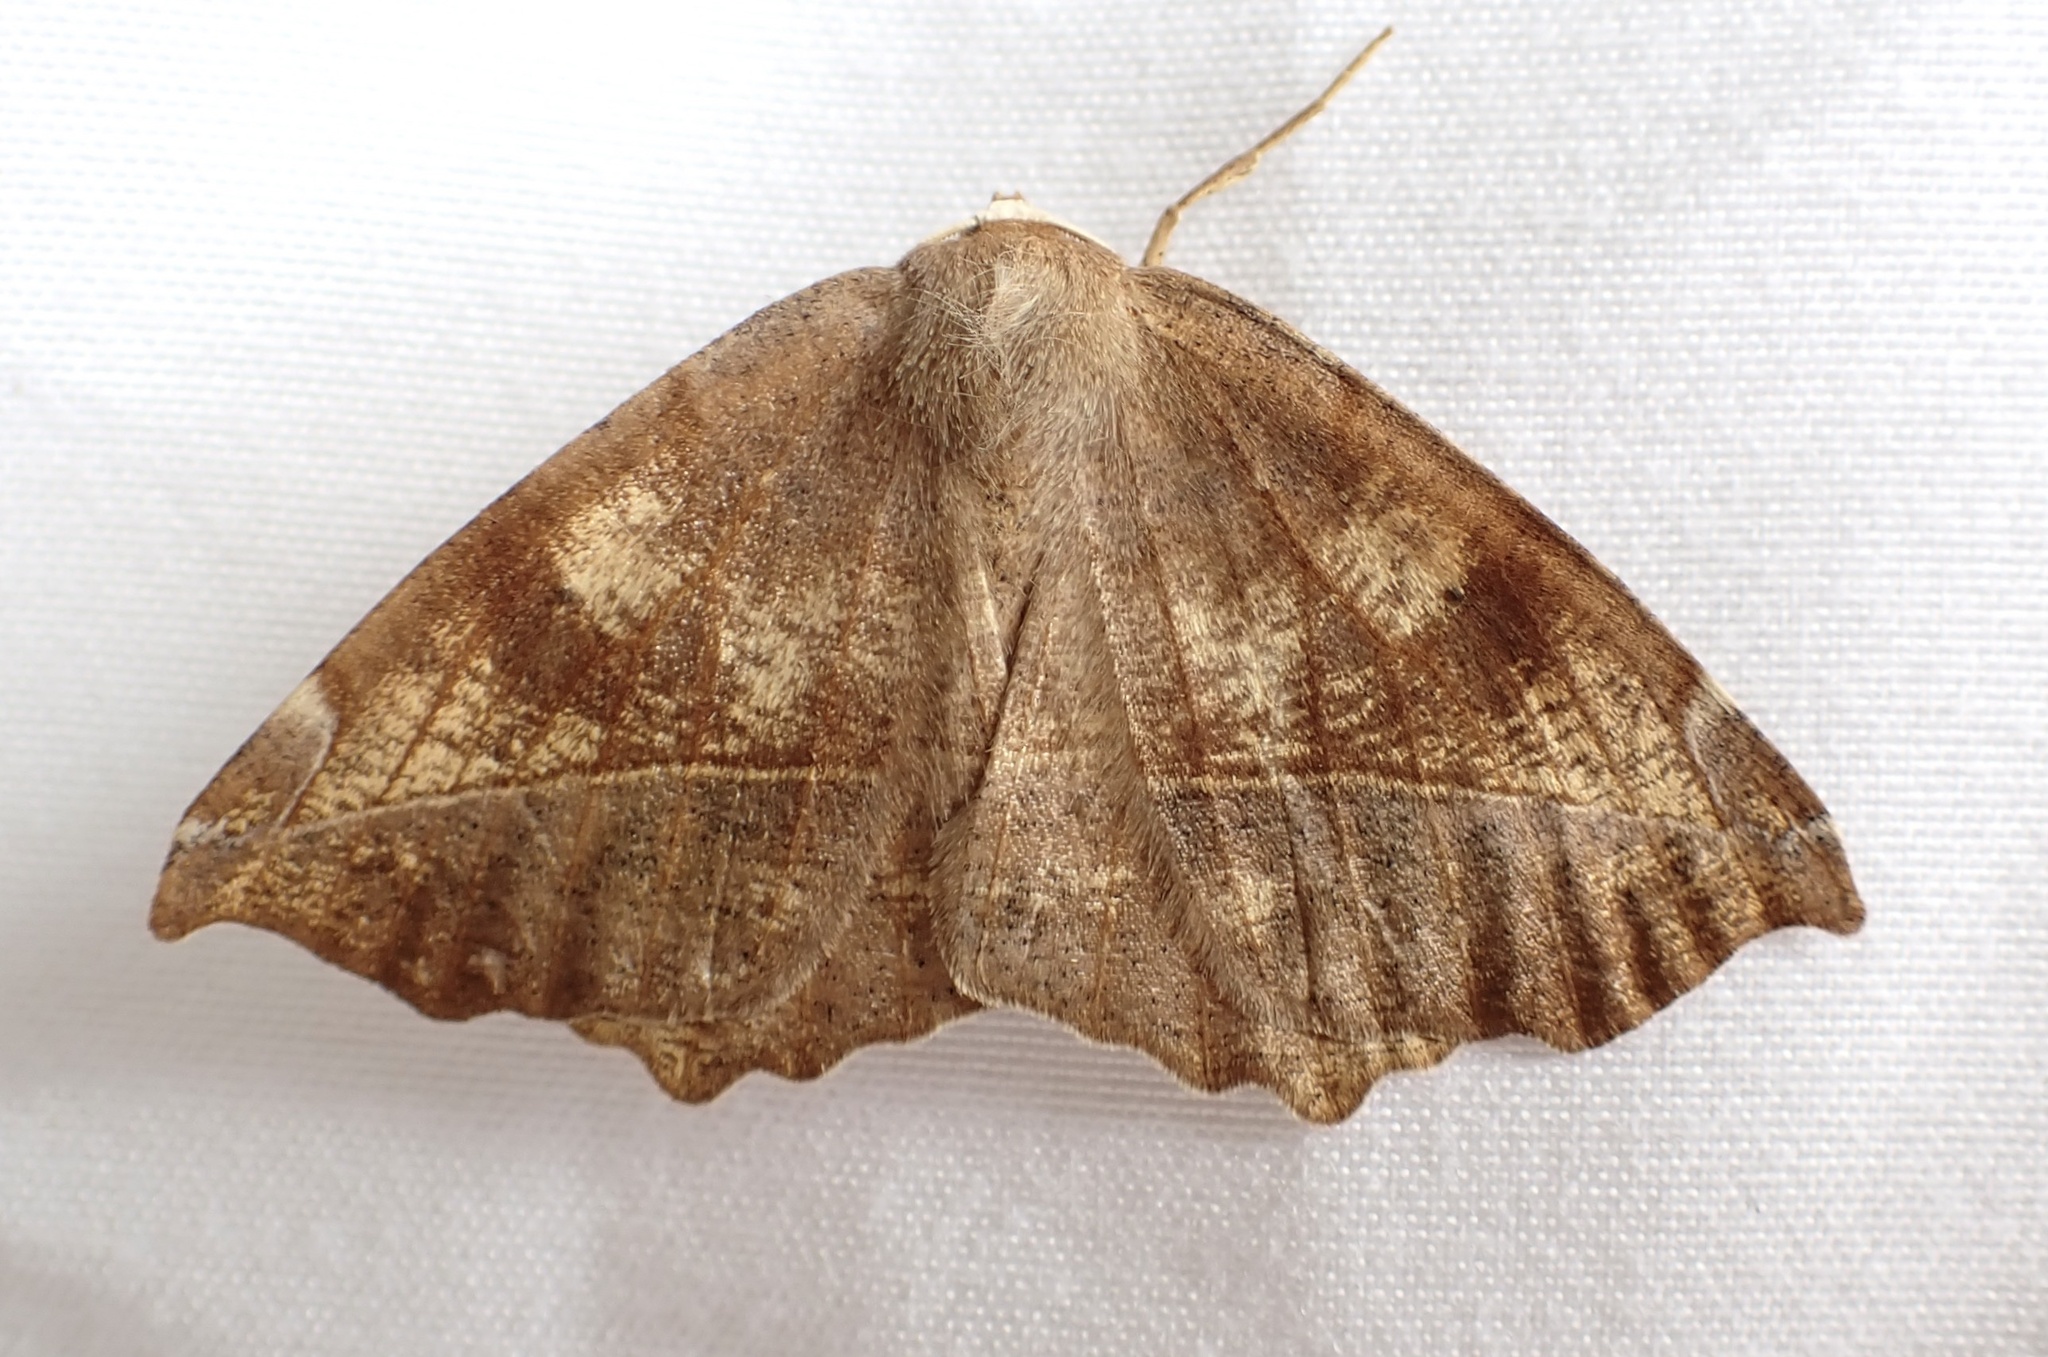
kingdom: Animalia
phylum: Arthropoda
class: Insecta
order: Lepidoptera
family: Geometridae
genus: Eutrapela
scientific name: Eutrapela clemataria
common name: Curved-toothed geometer
